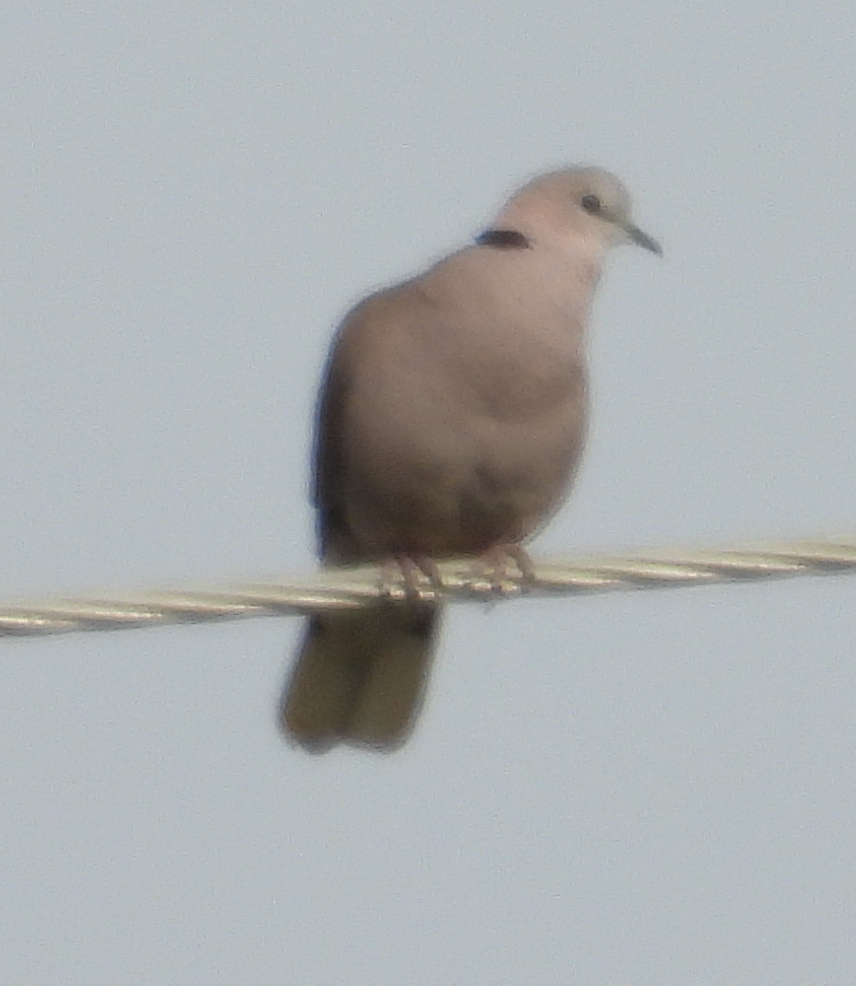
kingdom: Animalia
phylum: Chordata
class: Aves
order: Columbiformes
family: Columbidae
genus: Streptopelia
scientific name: Streptopelia capicola
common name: Ring-necked dove
